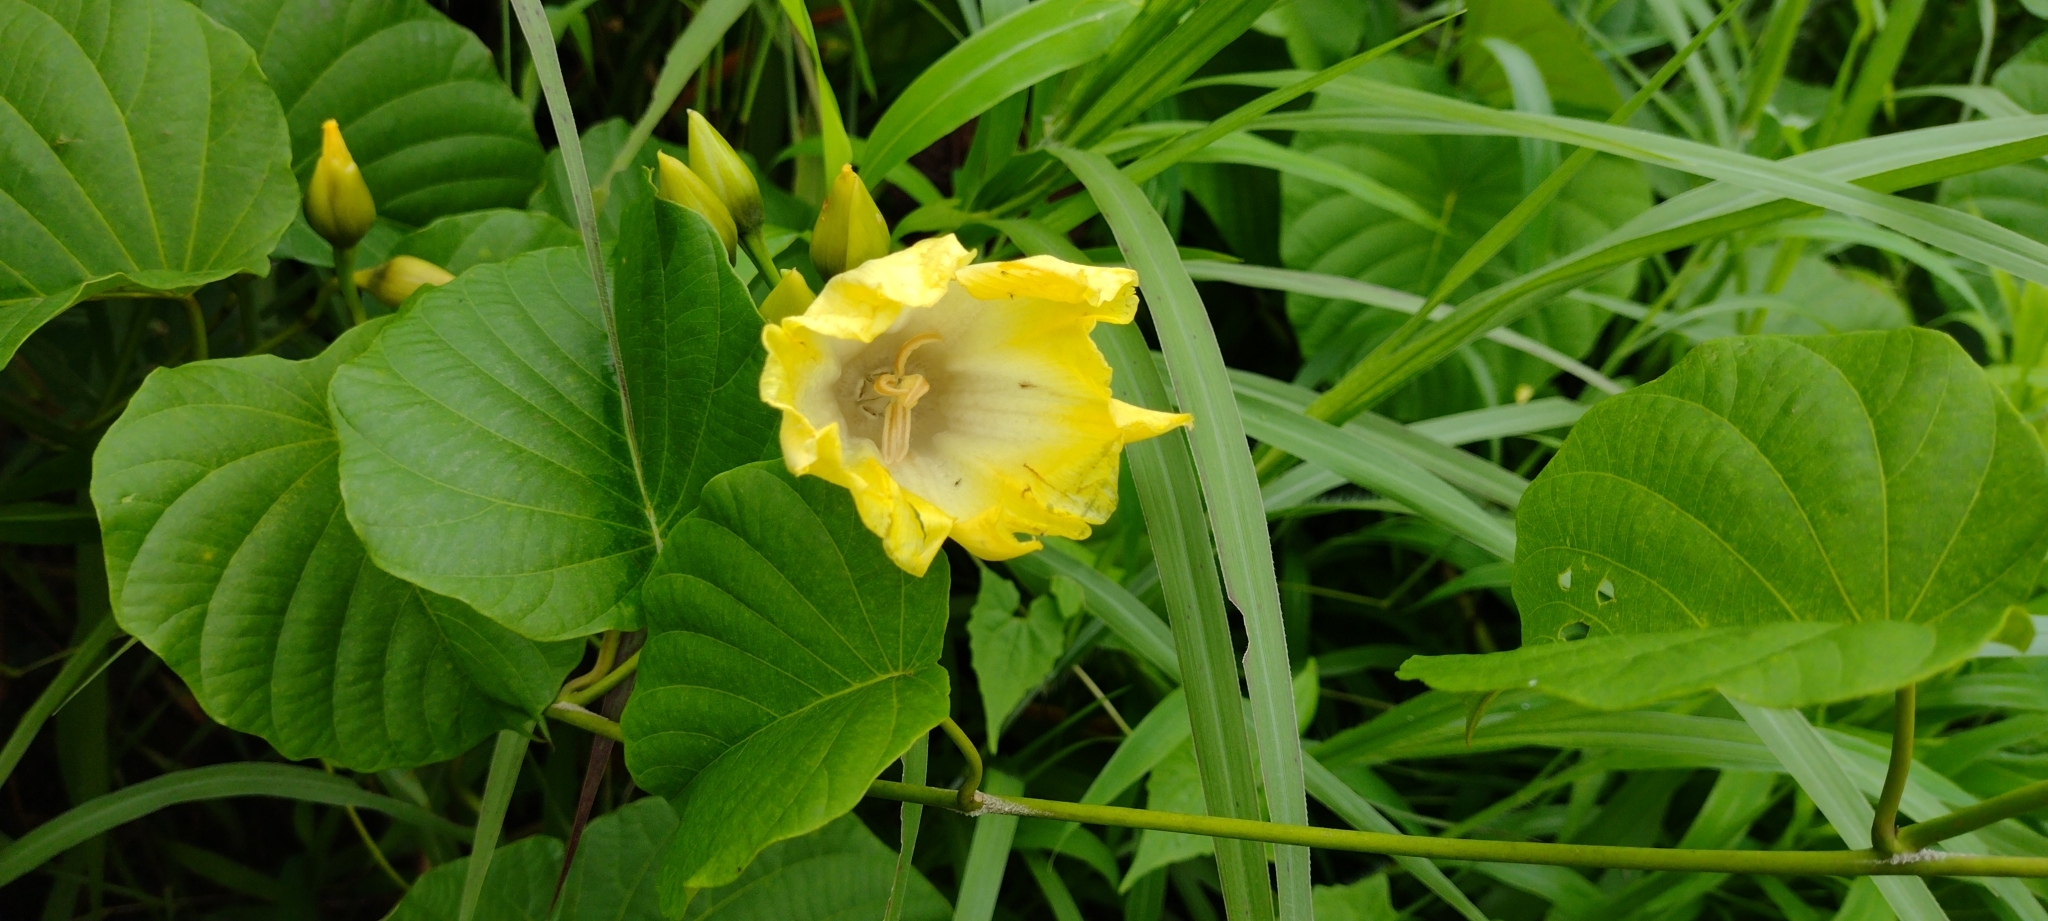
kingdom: Plantae
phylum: Tracheophyta
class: Magnoliopsida
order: Solanales
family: Convolvulaceae
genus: Decalobanthus
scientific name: Decalobanthus peltatus
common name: Merremia
